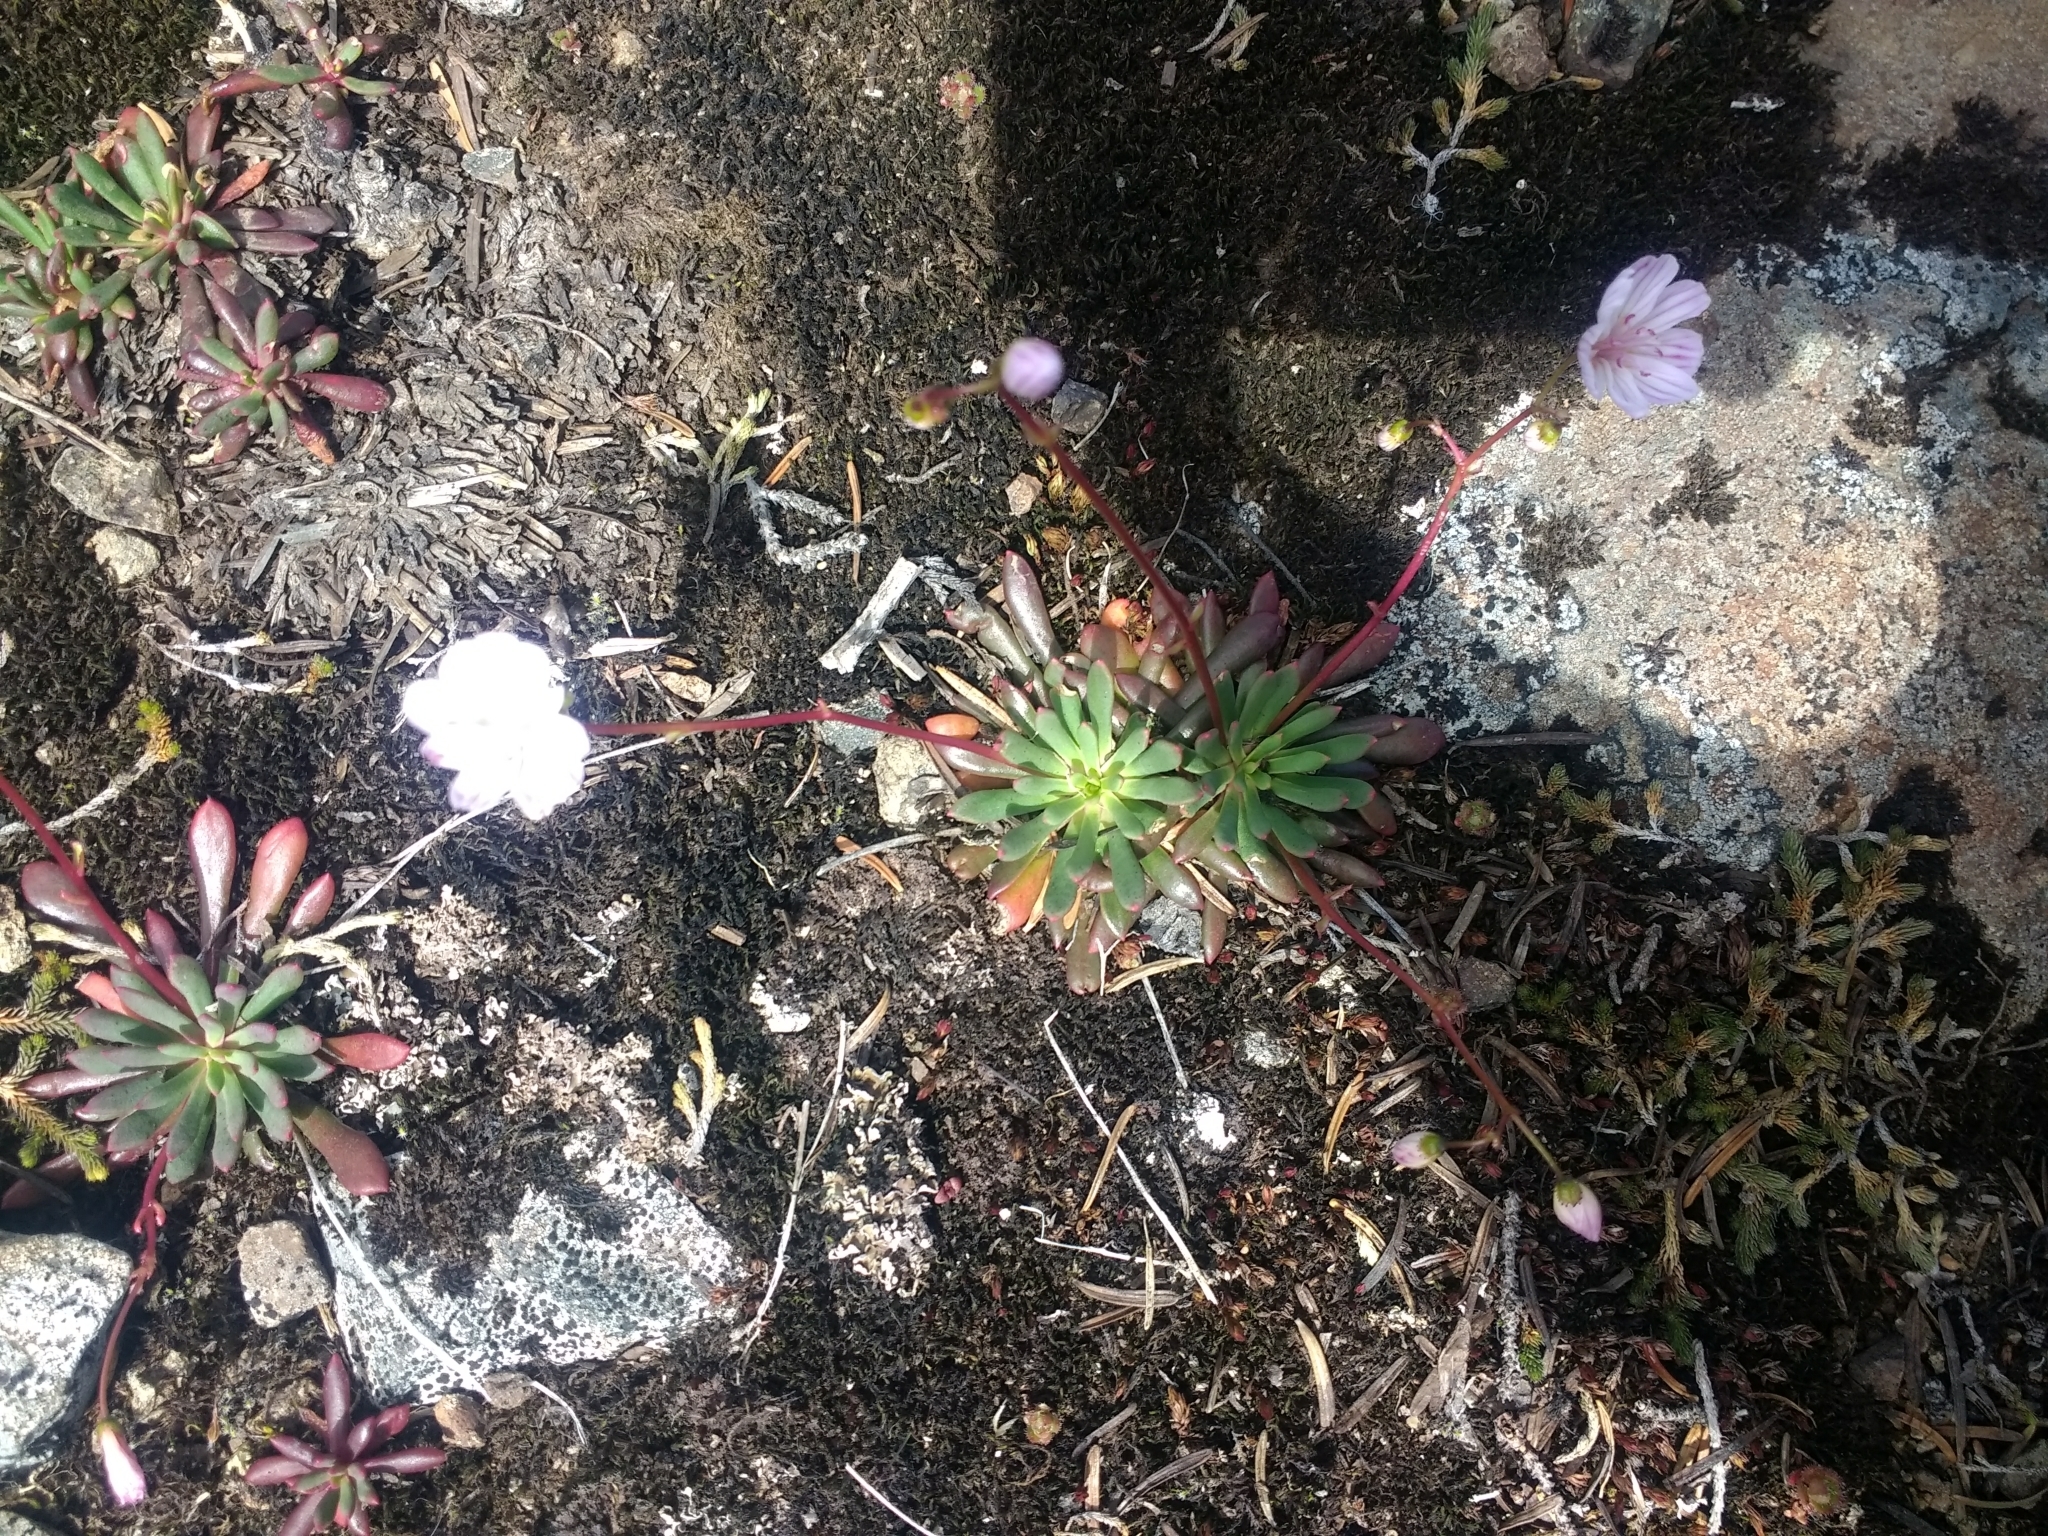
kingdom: Plantae
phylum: Tracheophyta
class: Magnoliopsida
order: Caryophyllales
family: Montiaceae
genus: Lewisia
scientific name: Lewisia columbiana
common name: Columbia lewisia
